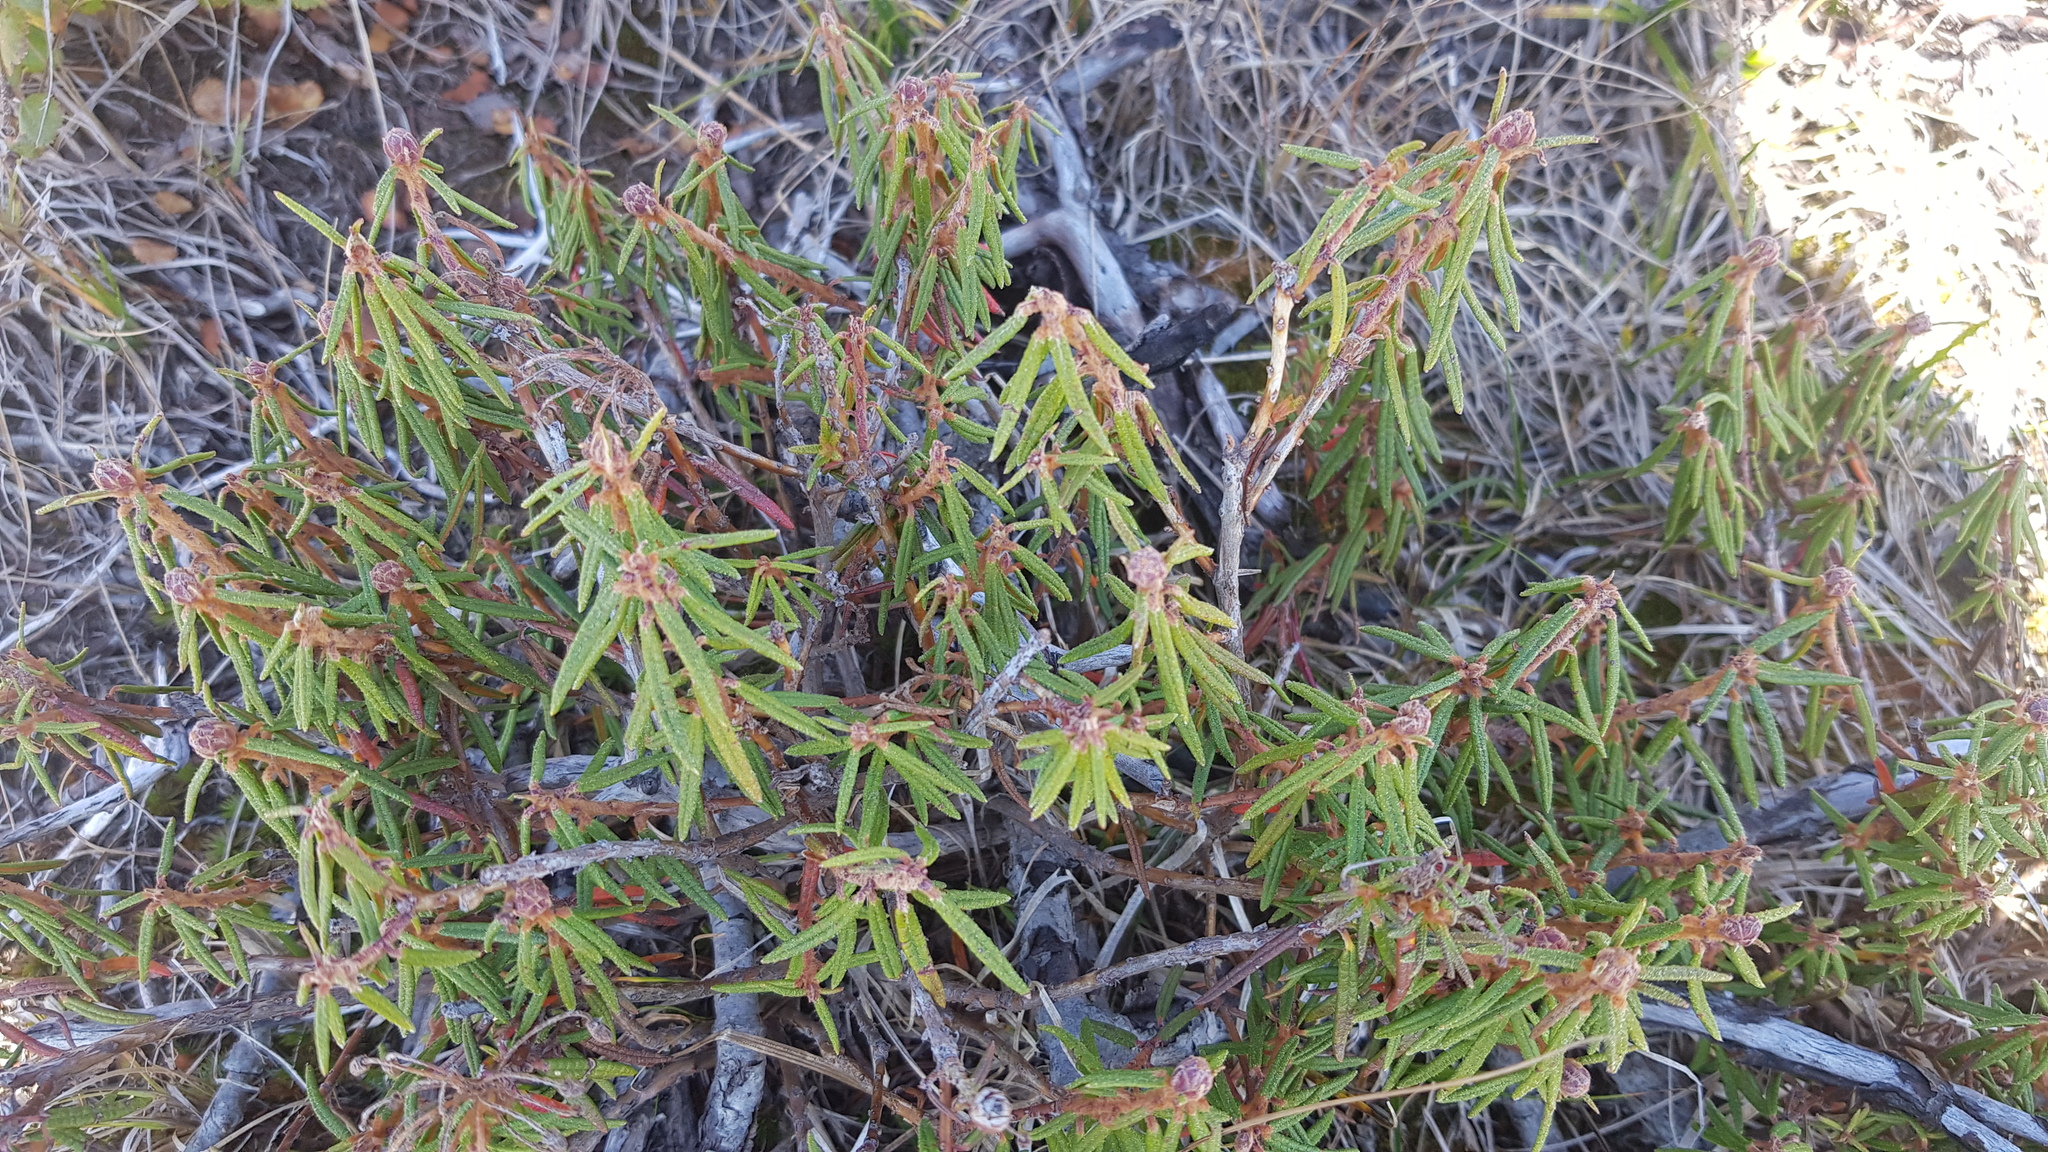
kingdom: Plantae
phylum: Tracheophyta
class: Magnoliopsida
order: Ericales
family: Ericaceae
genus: Rhododendron
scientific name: Rhododendron tomentosum
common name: Marsh labrador tea
